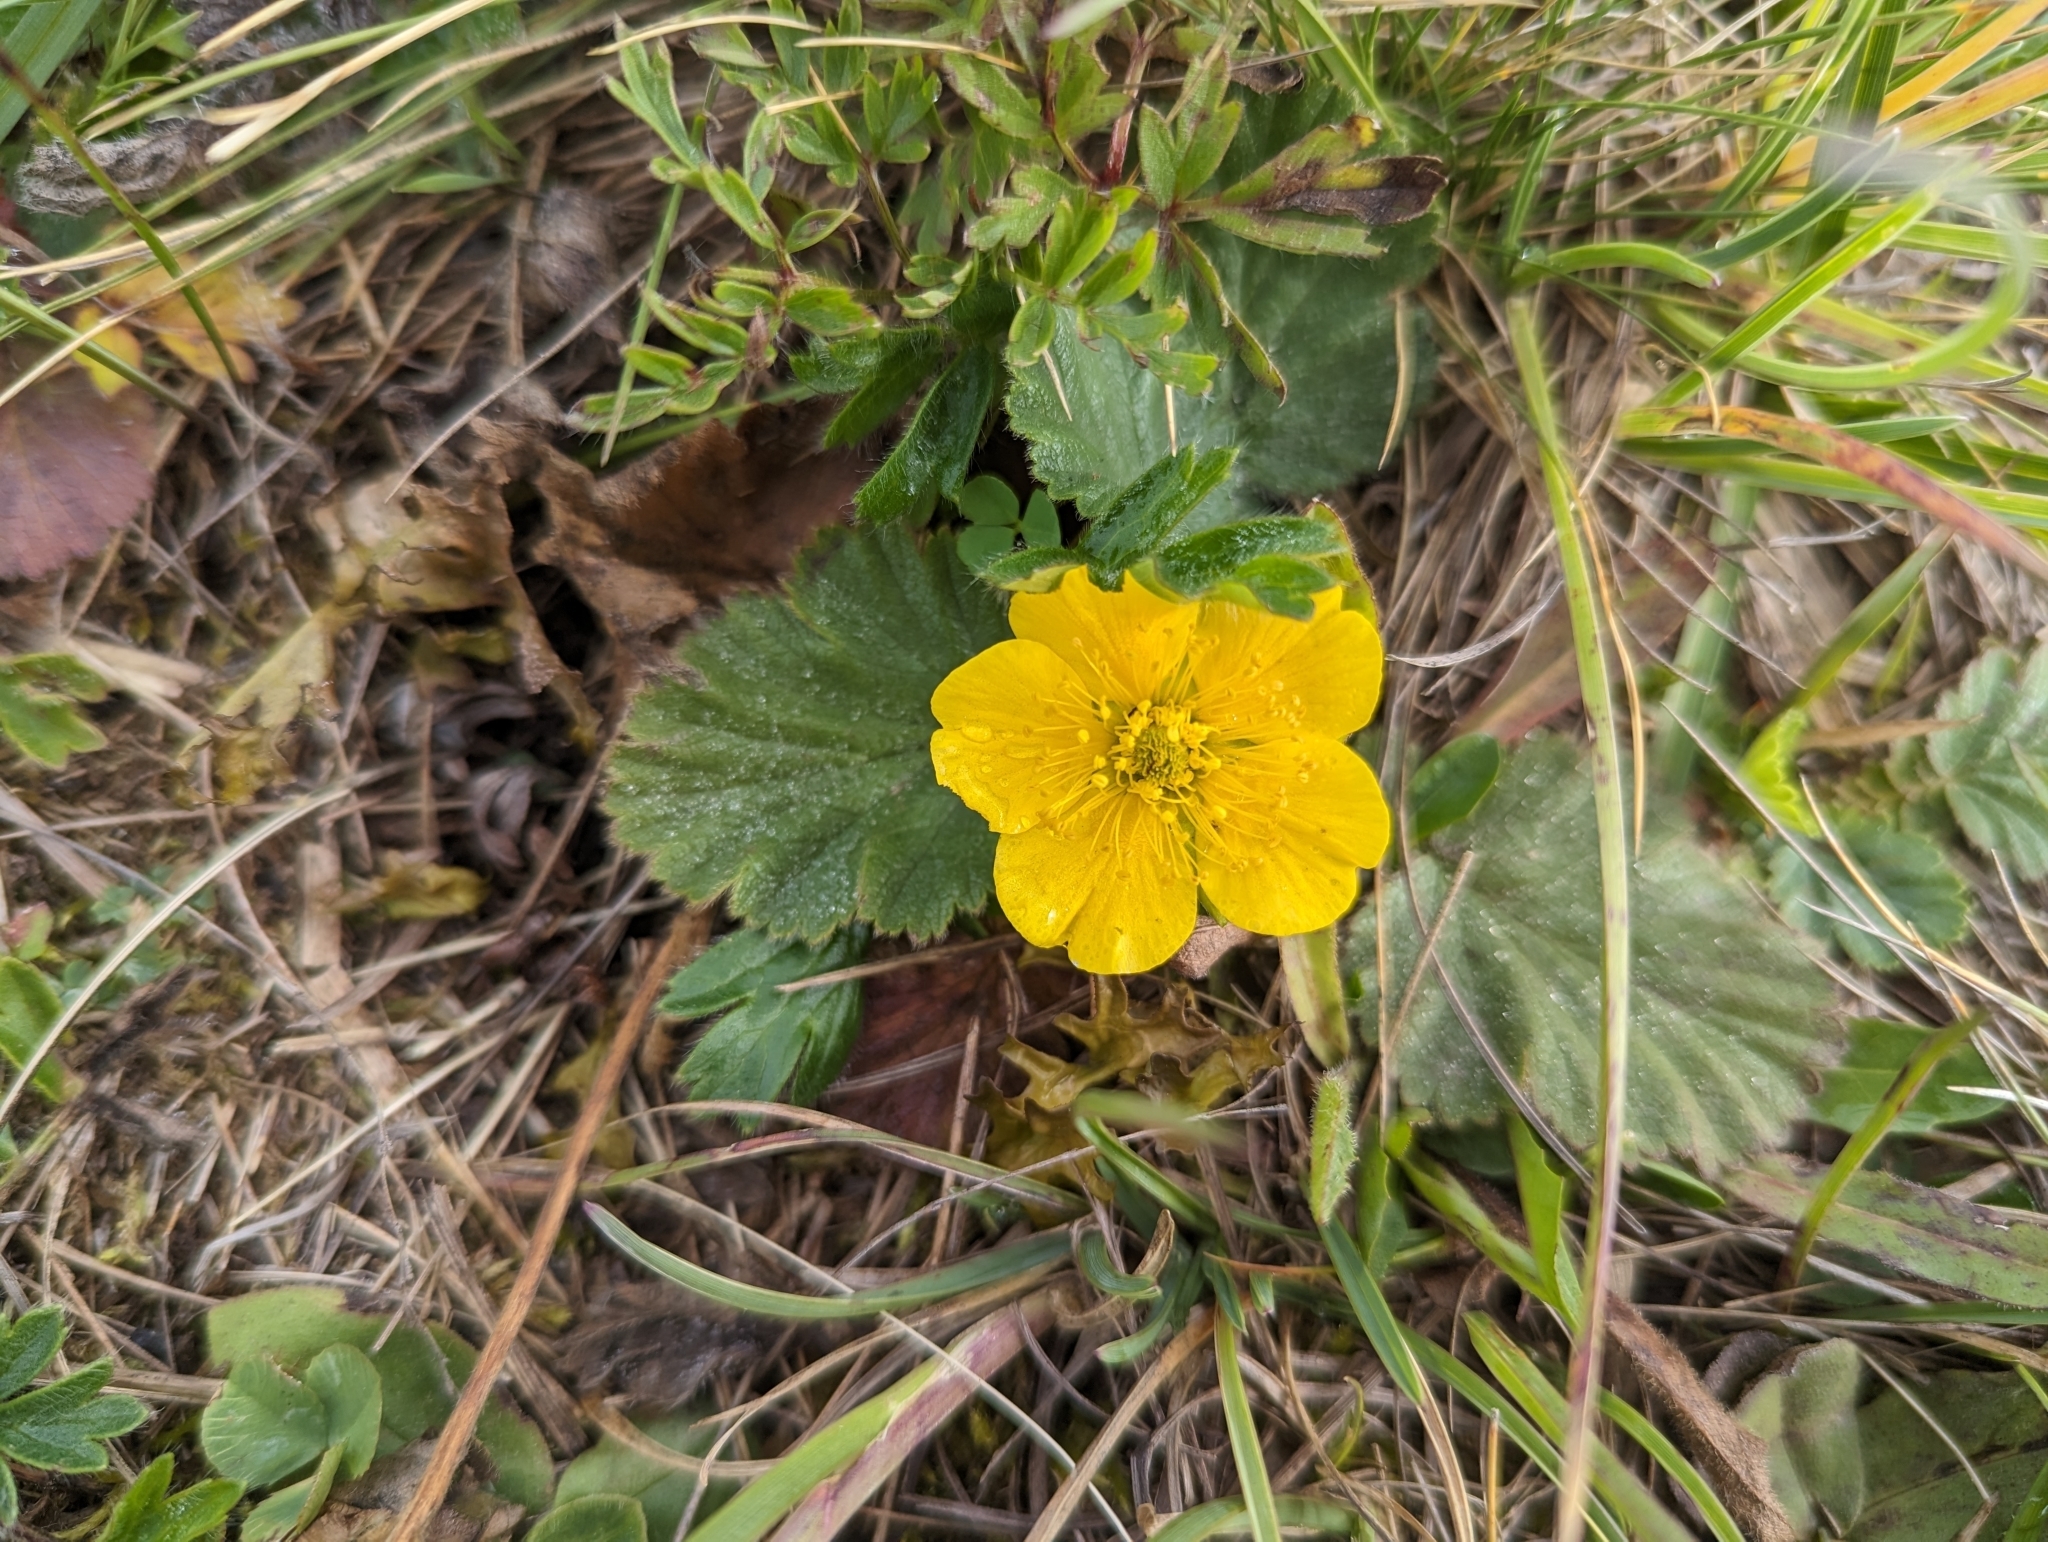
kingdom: Plantae
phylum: Tracheophyta
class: Magnoliopsida
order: Rosales
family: Rosaceae
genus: Geum
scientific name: Geum montanum
